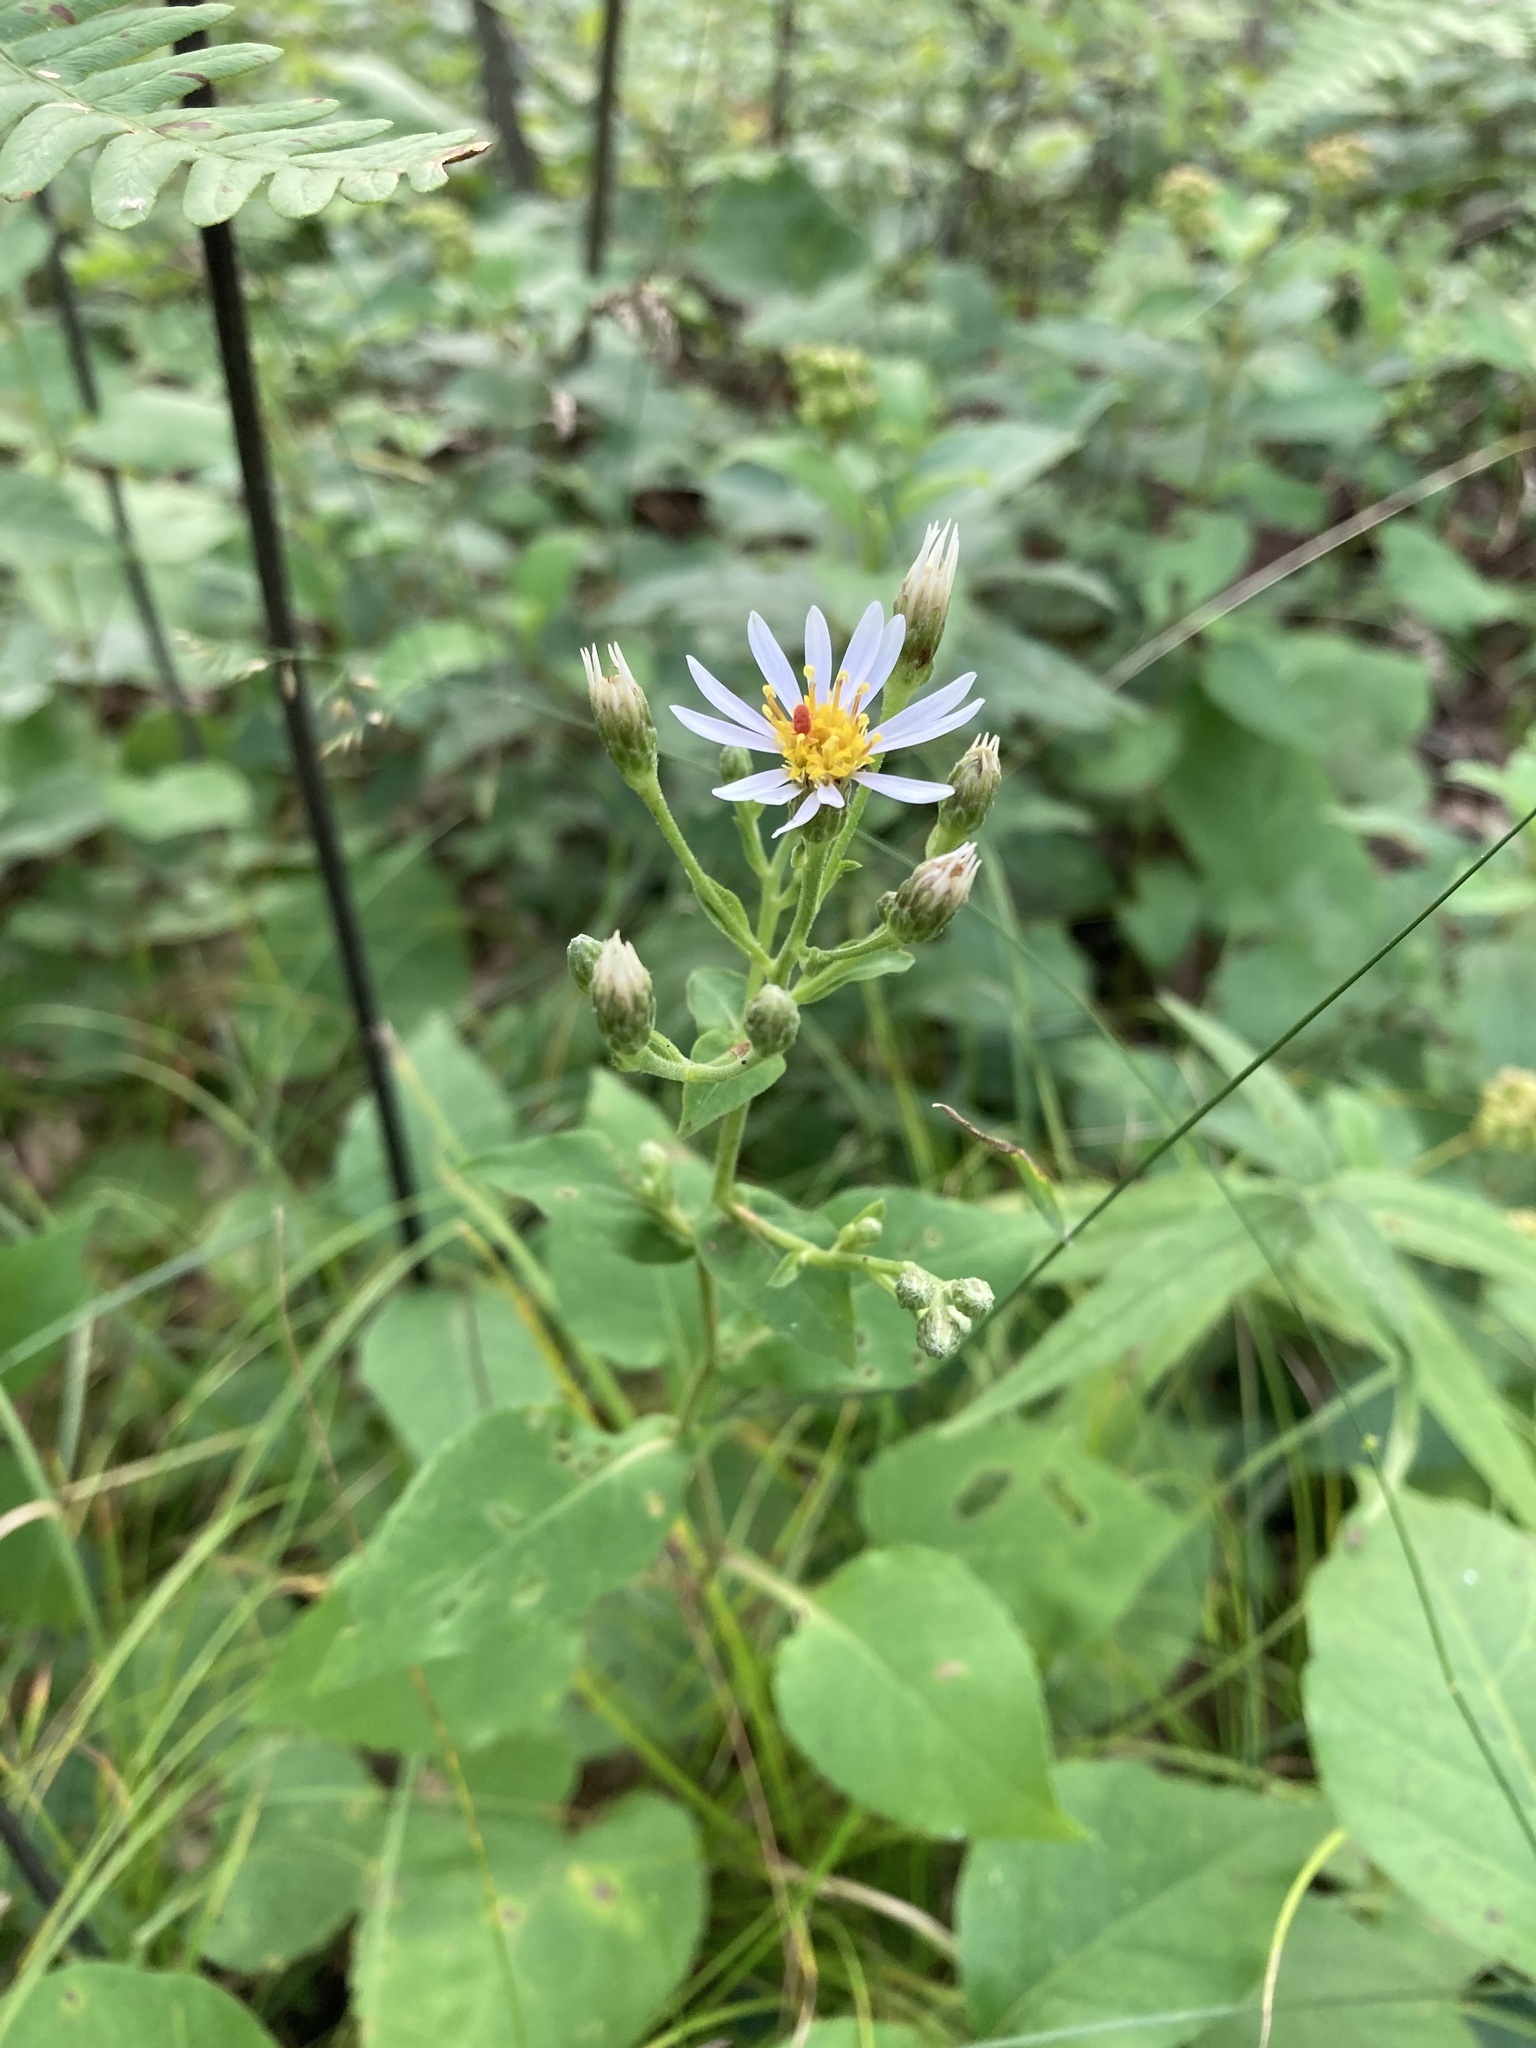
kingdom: Plantae
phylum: Tracheophyta
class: Magnoliopsida
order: Asterales
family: Asteraceae
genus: Eurybia
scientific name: Eurybia macrophylla
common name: Big-leaved aster
